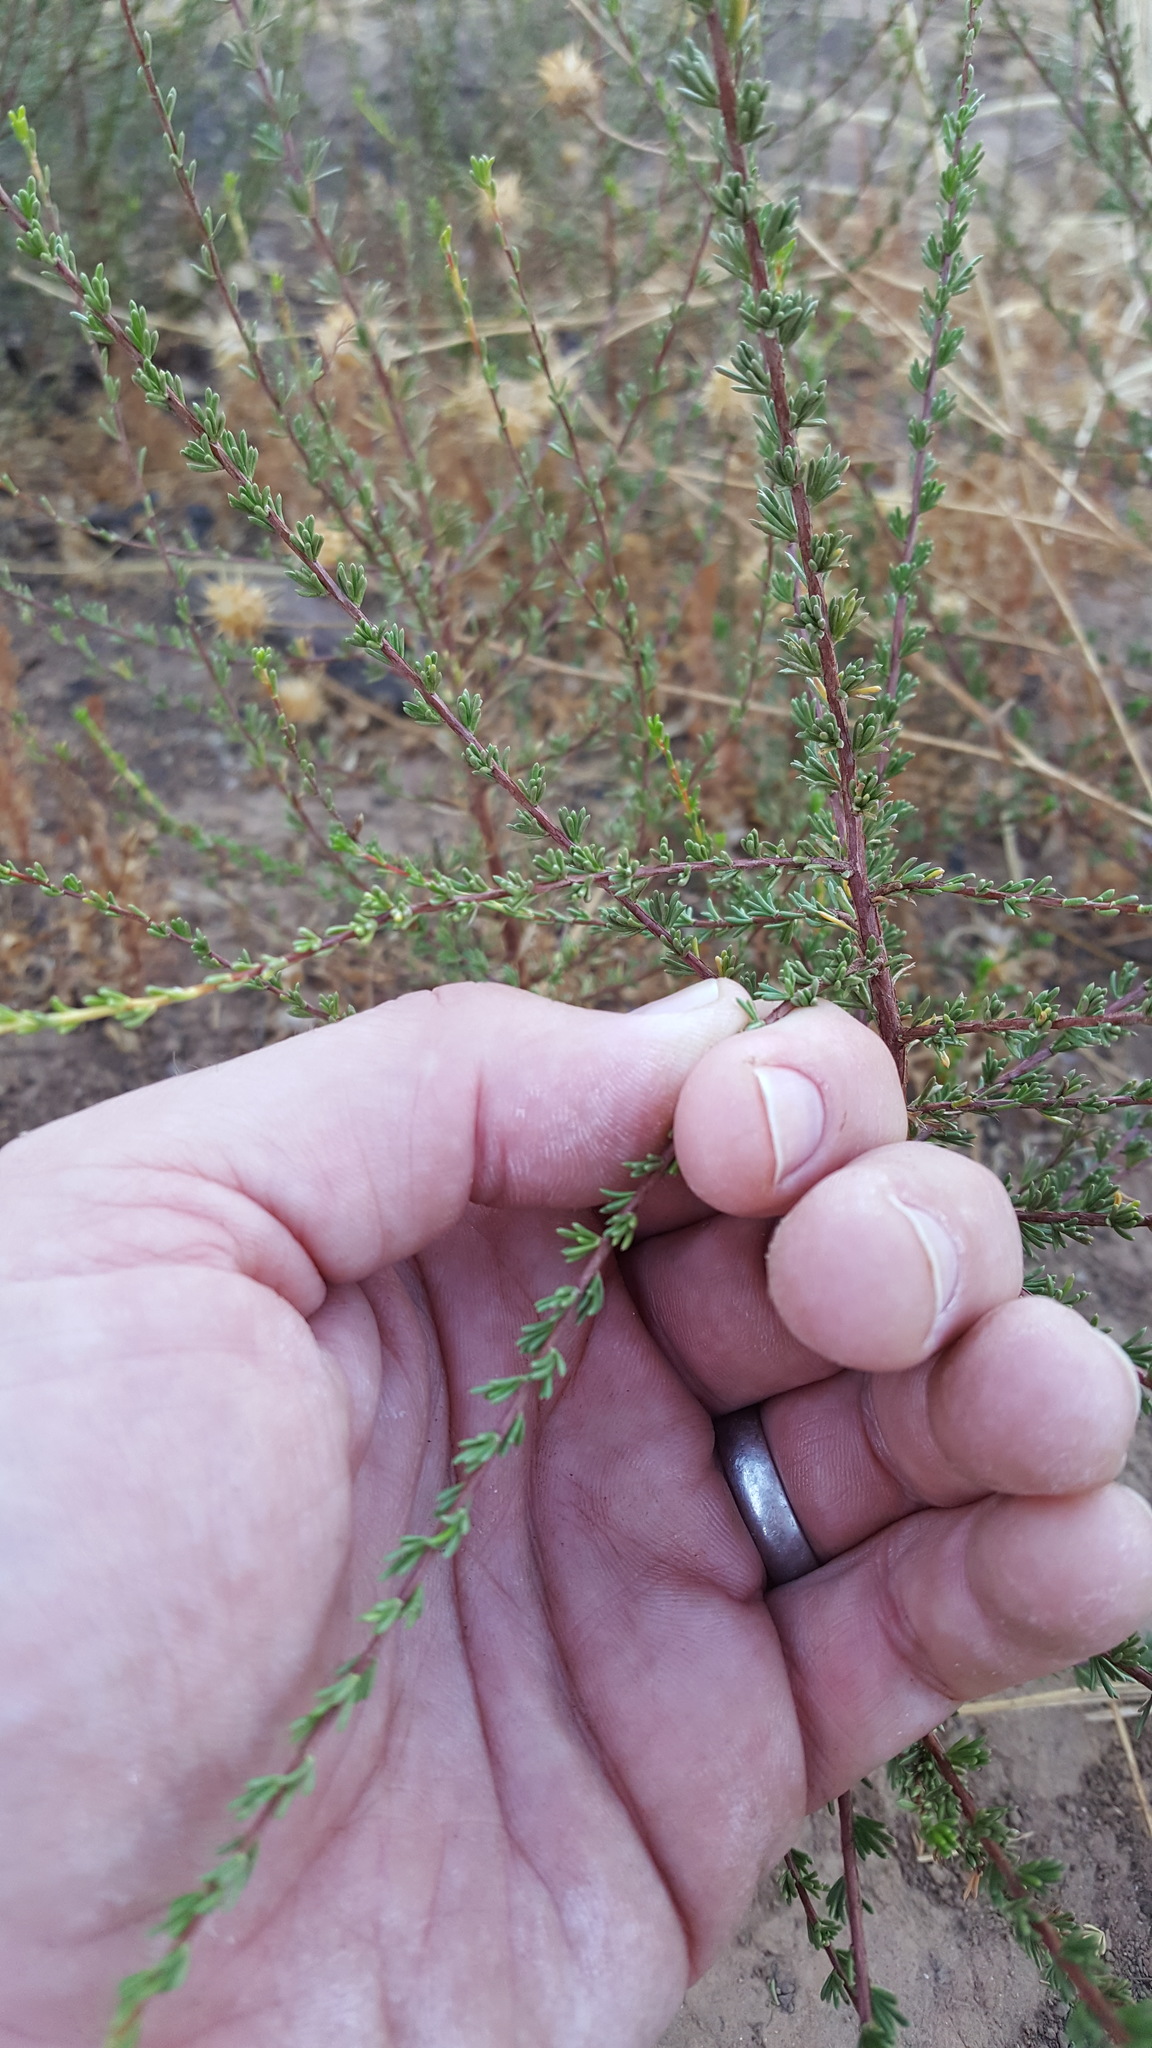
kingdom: Plantae
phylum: Tracheophyta
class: Magnoliopsida
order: Rosales
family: Rosaceae
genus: Adenostoma
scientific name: Adenostoma fasciculatum
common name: Chamise
